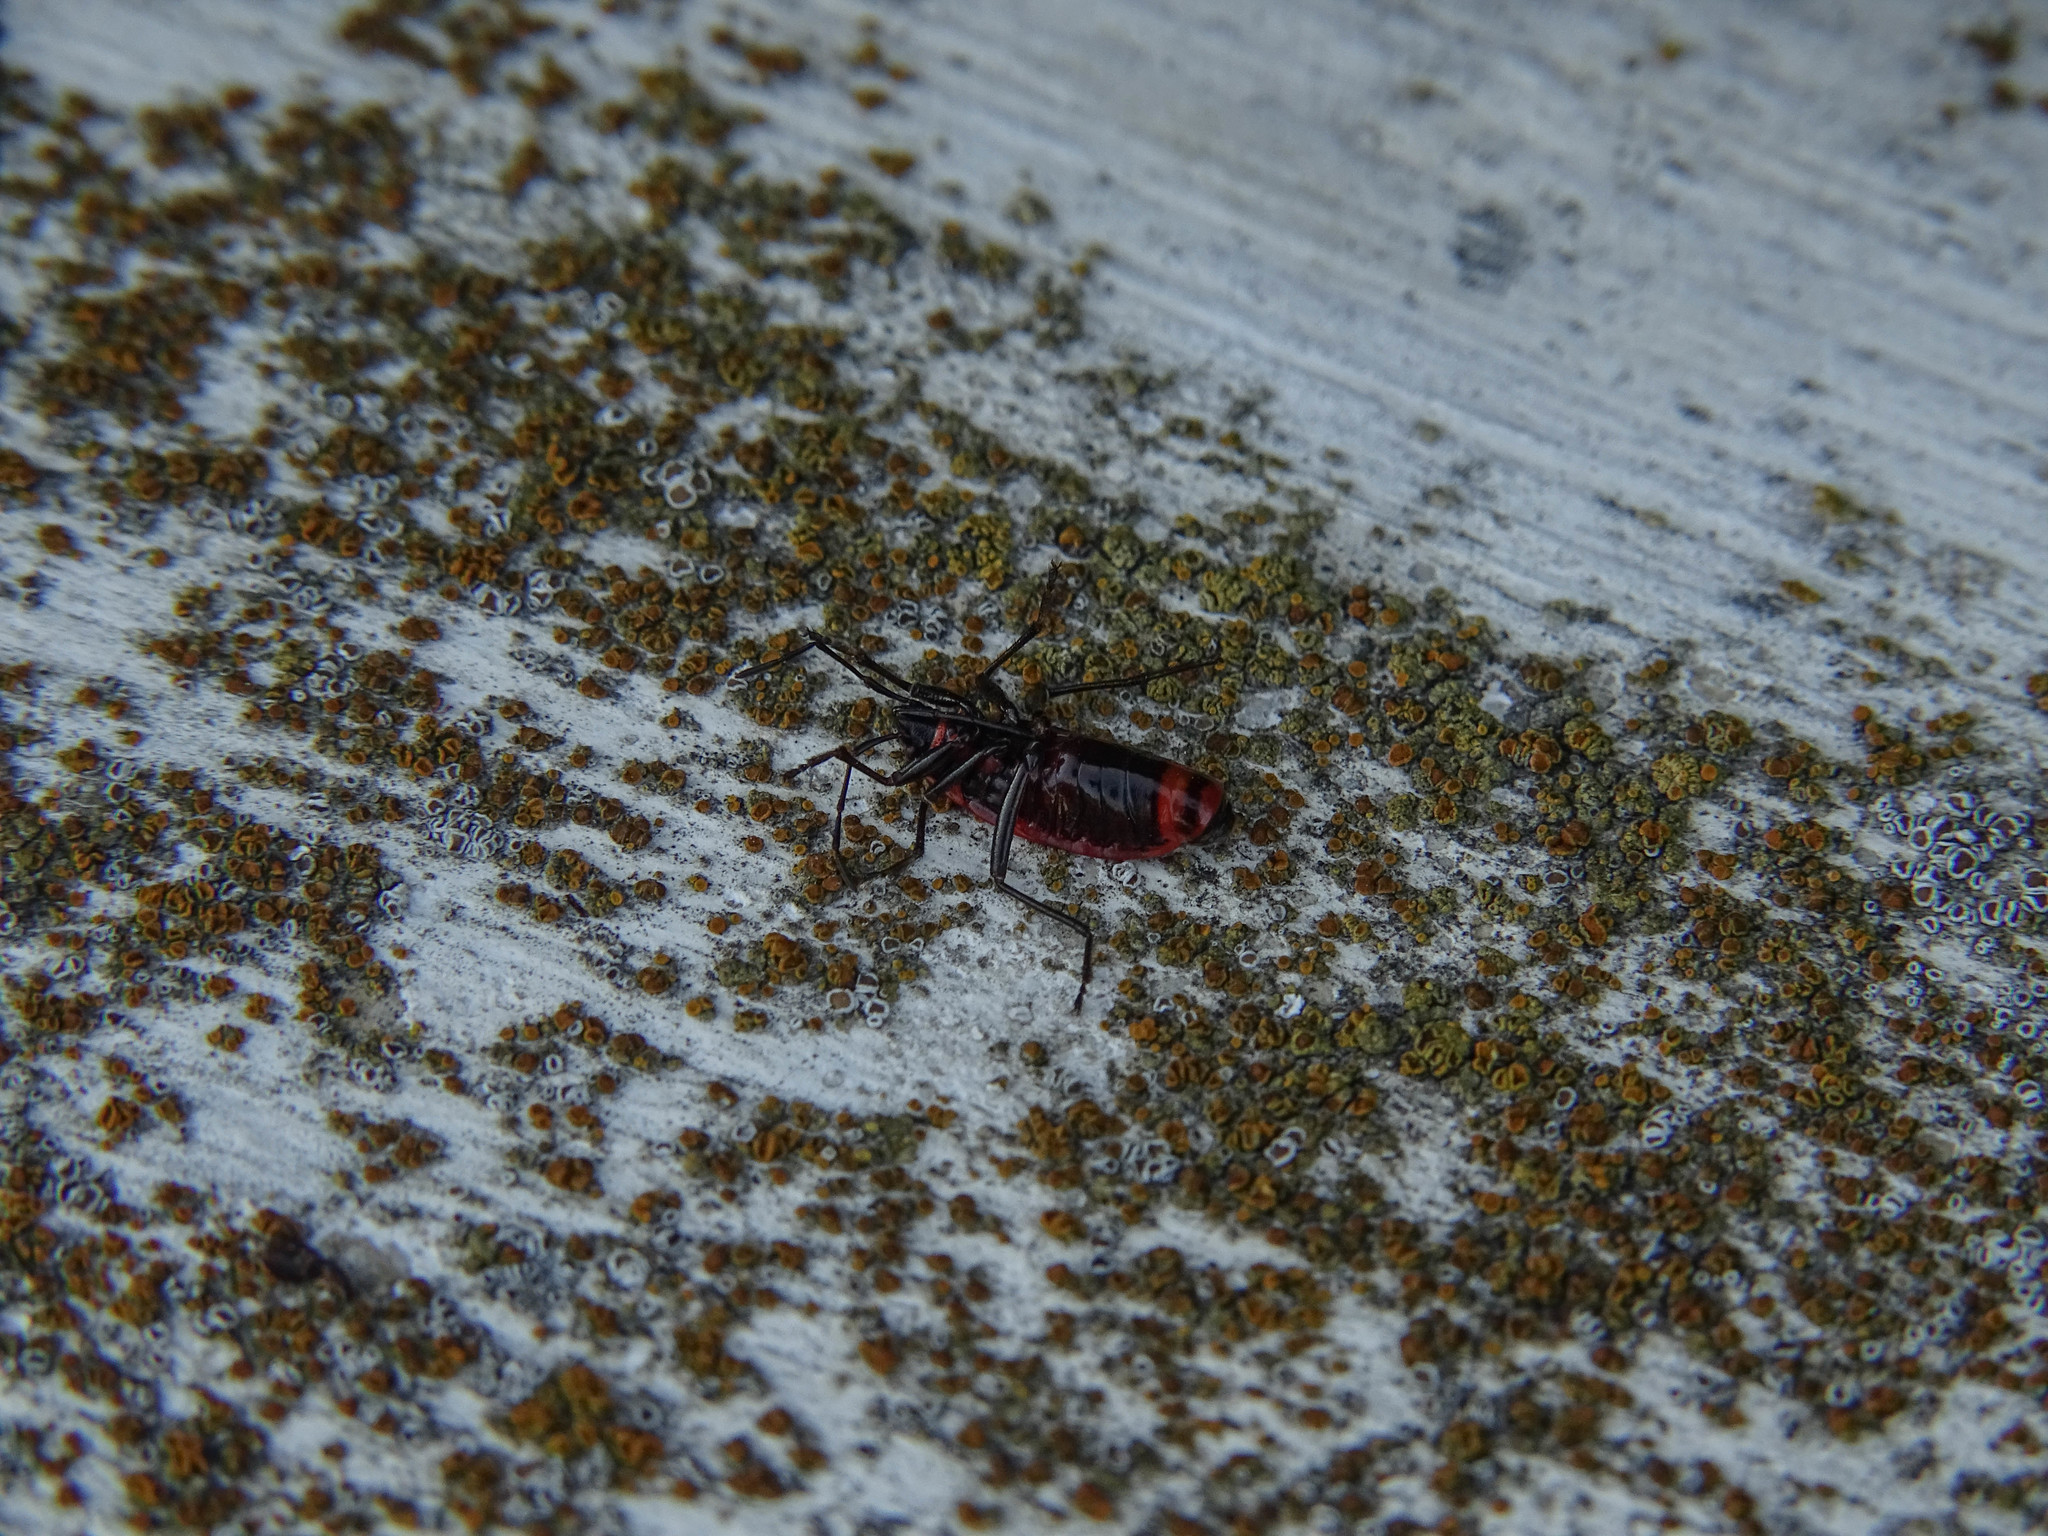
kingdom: Animalia
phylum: Arthropoda
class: Insecta
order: Hemiptera
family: Pyrrhocoridae
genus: Pyrrhocoris
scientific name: Pyrrhocoris apterus
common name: Firebug
